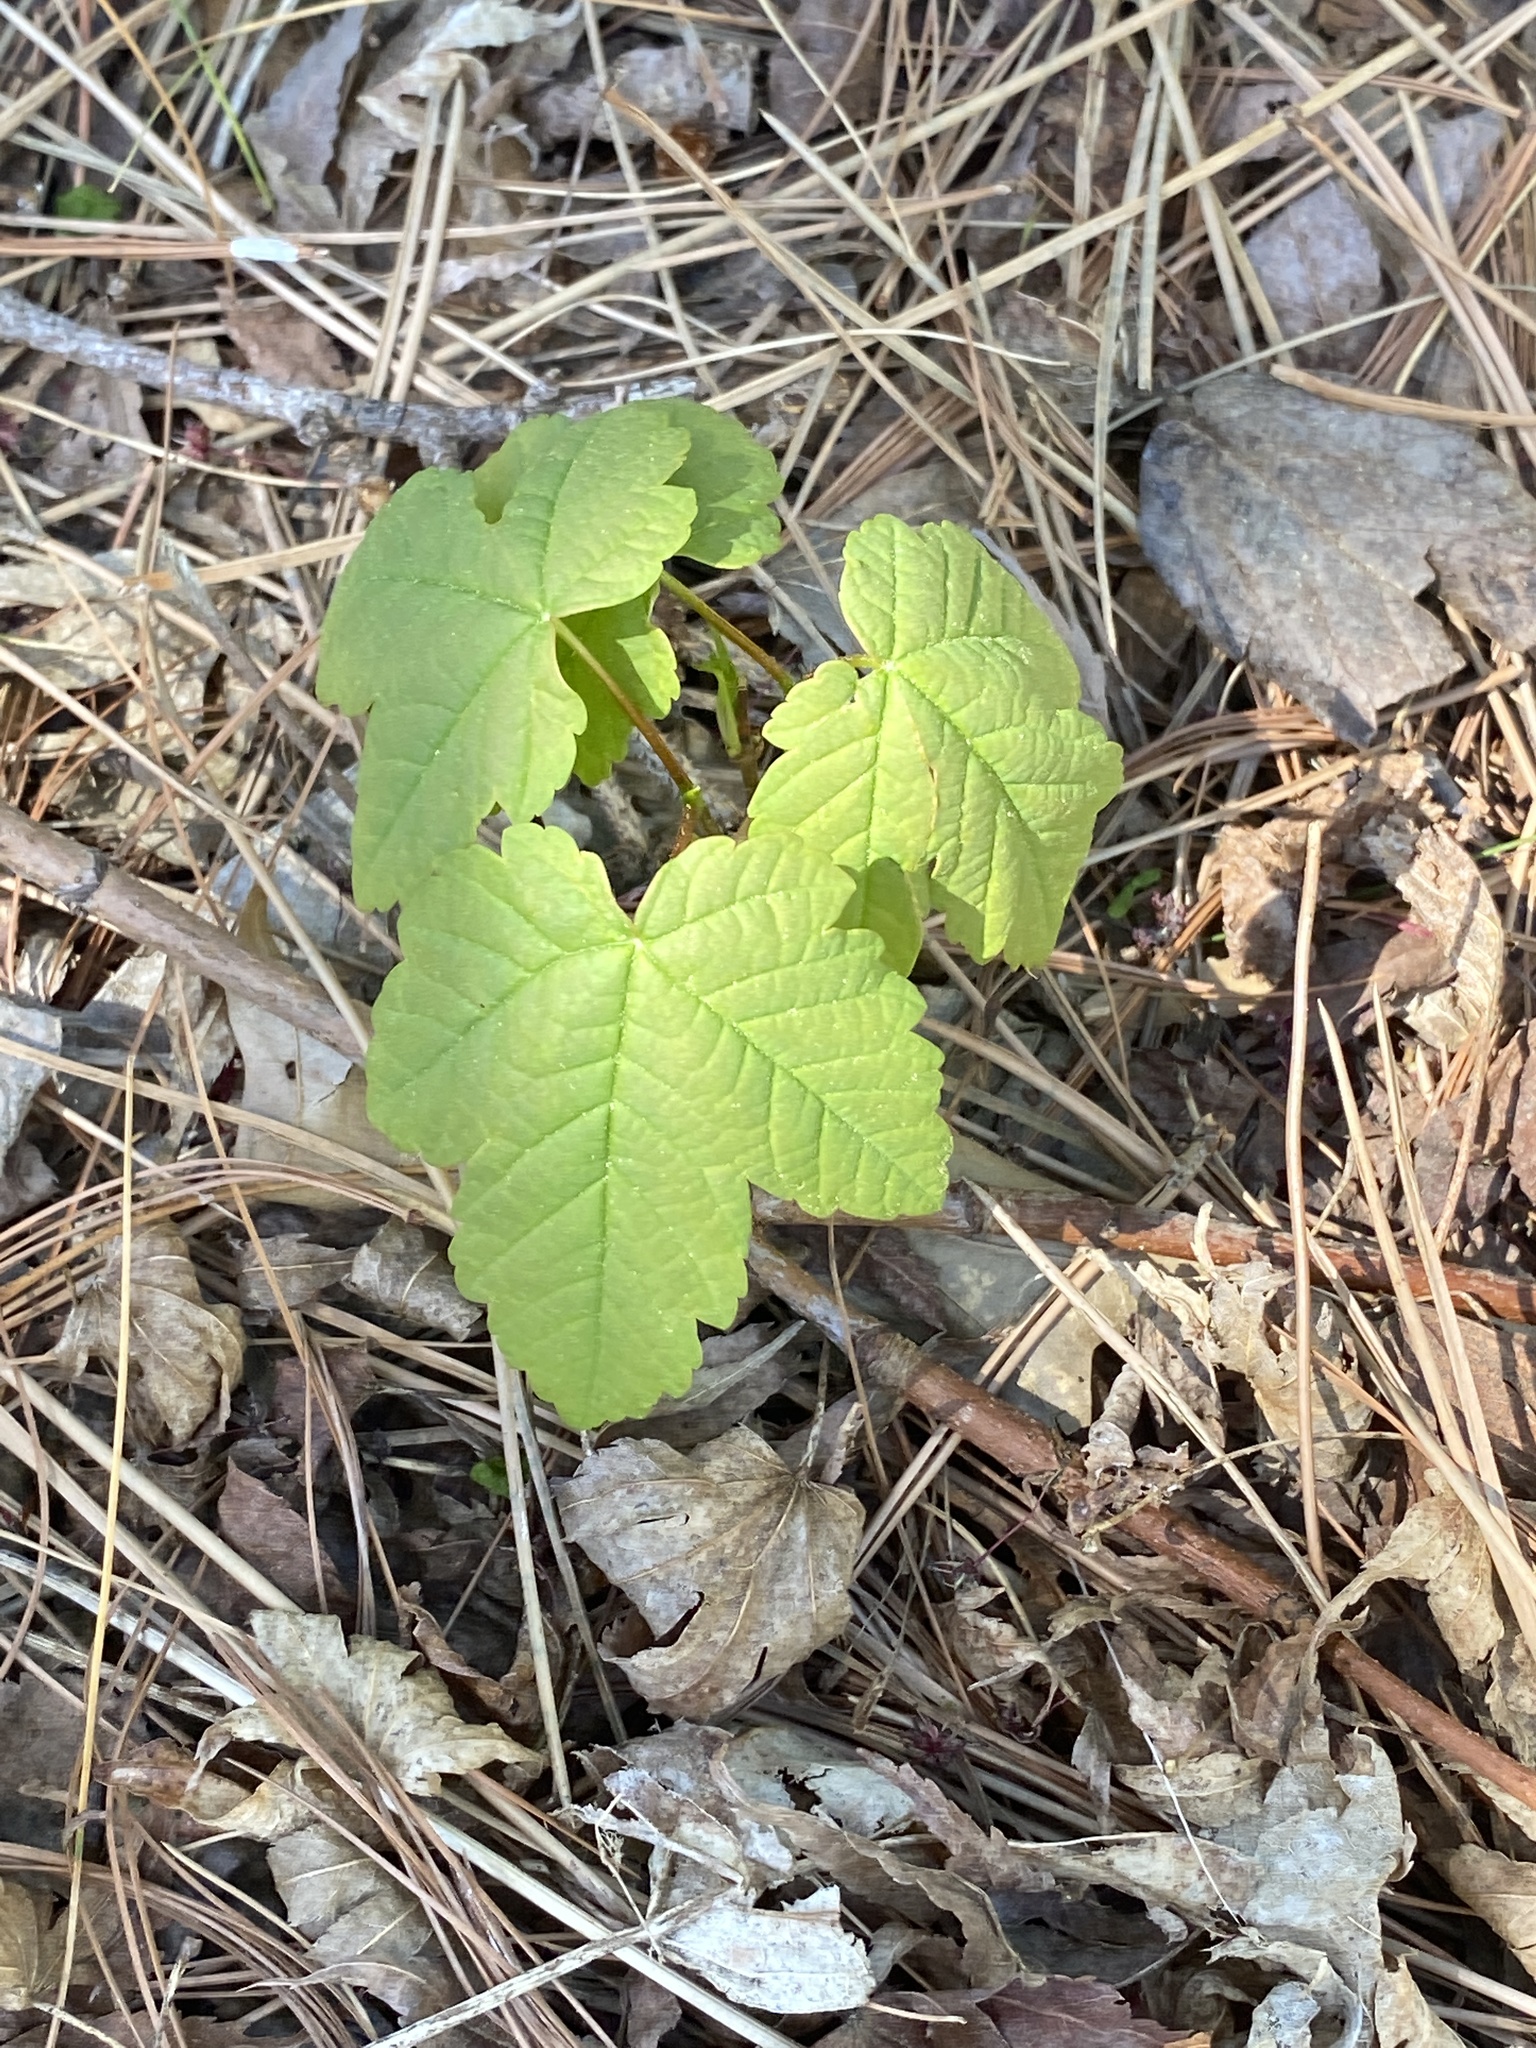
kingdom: Plantae
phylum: Tracheophyta
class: Magnoliopsida
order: Sapindales
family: Sapindaceae
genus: Acer
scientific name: Acer pseudoplatanus
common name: Sycamore
